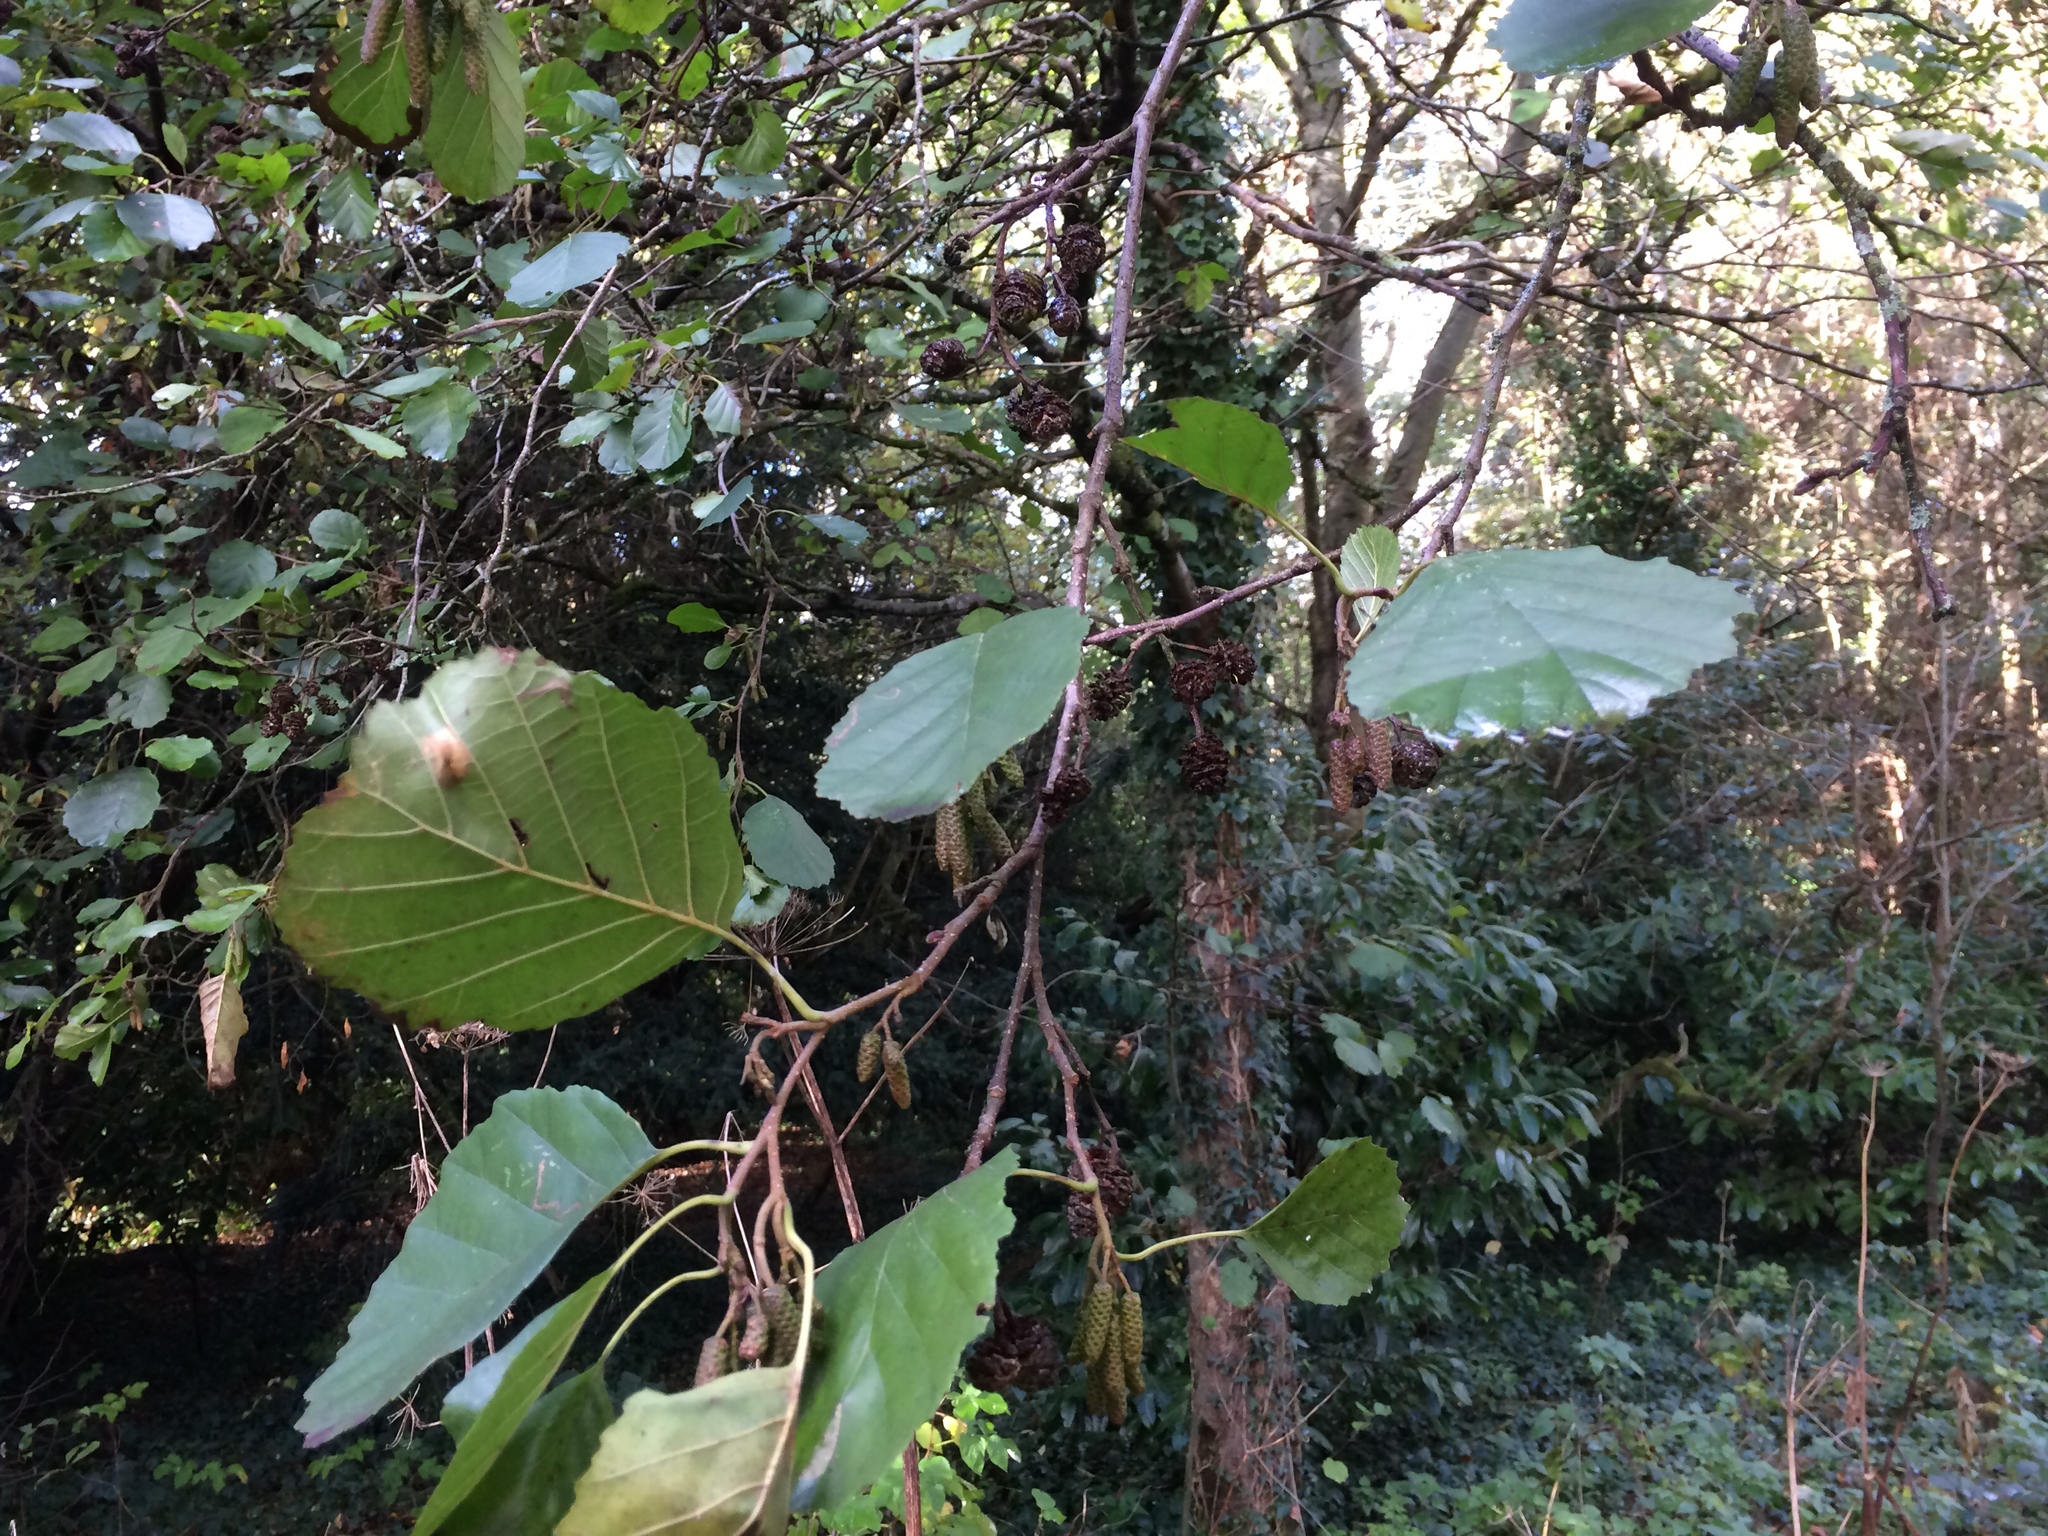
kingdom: Plantae
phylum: Tracheophyta
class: Magnoliopsida
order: Fagales
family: Betulaceae
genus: Alnus
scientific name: Alnus glutinosa
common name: Black alder
